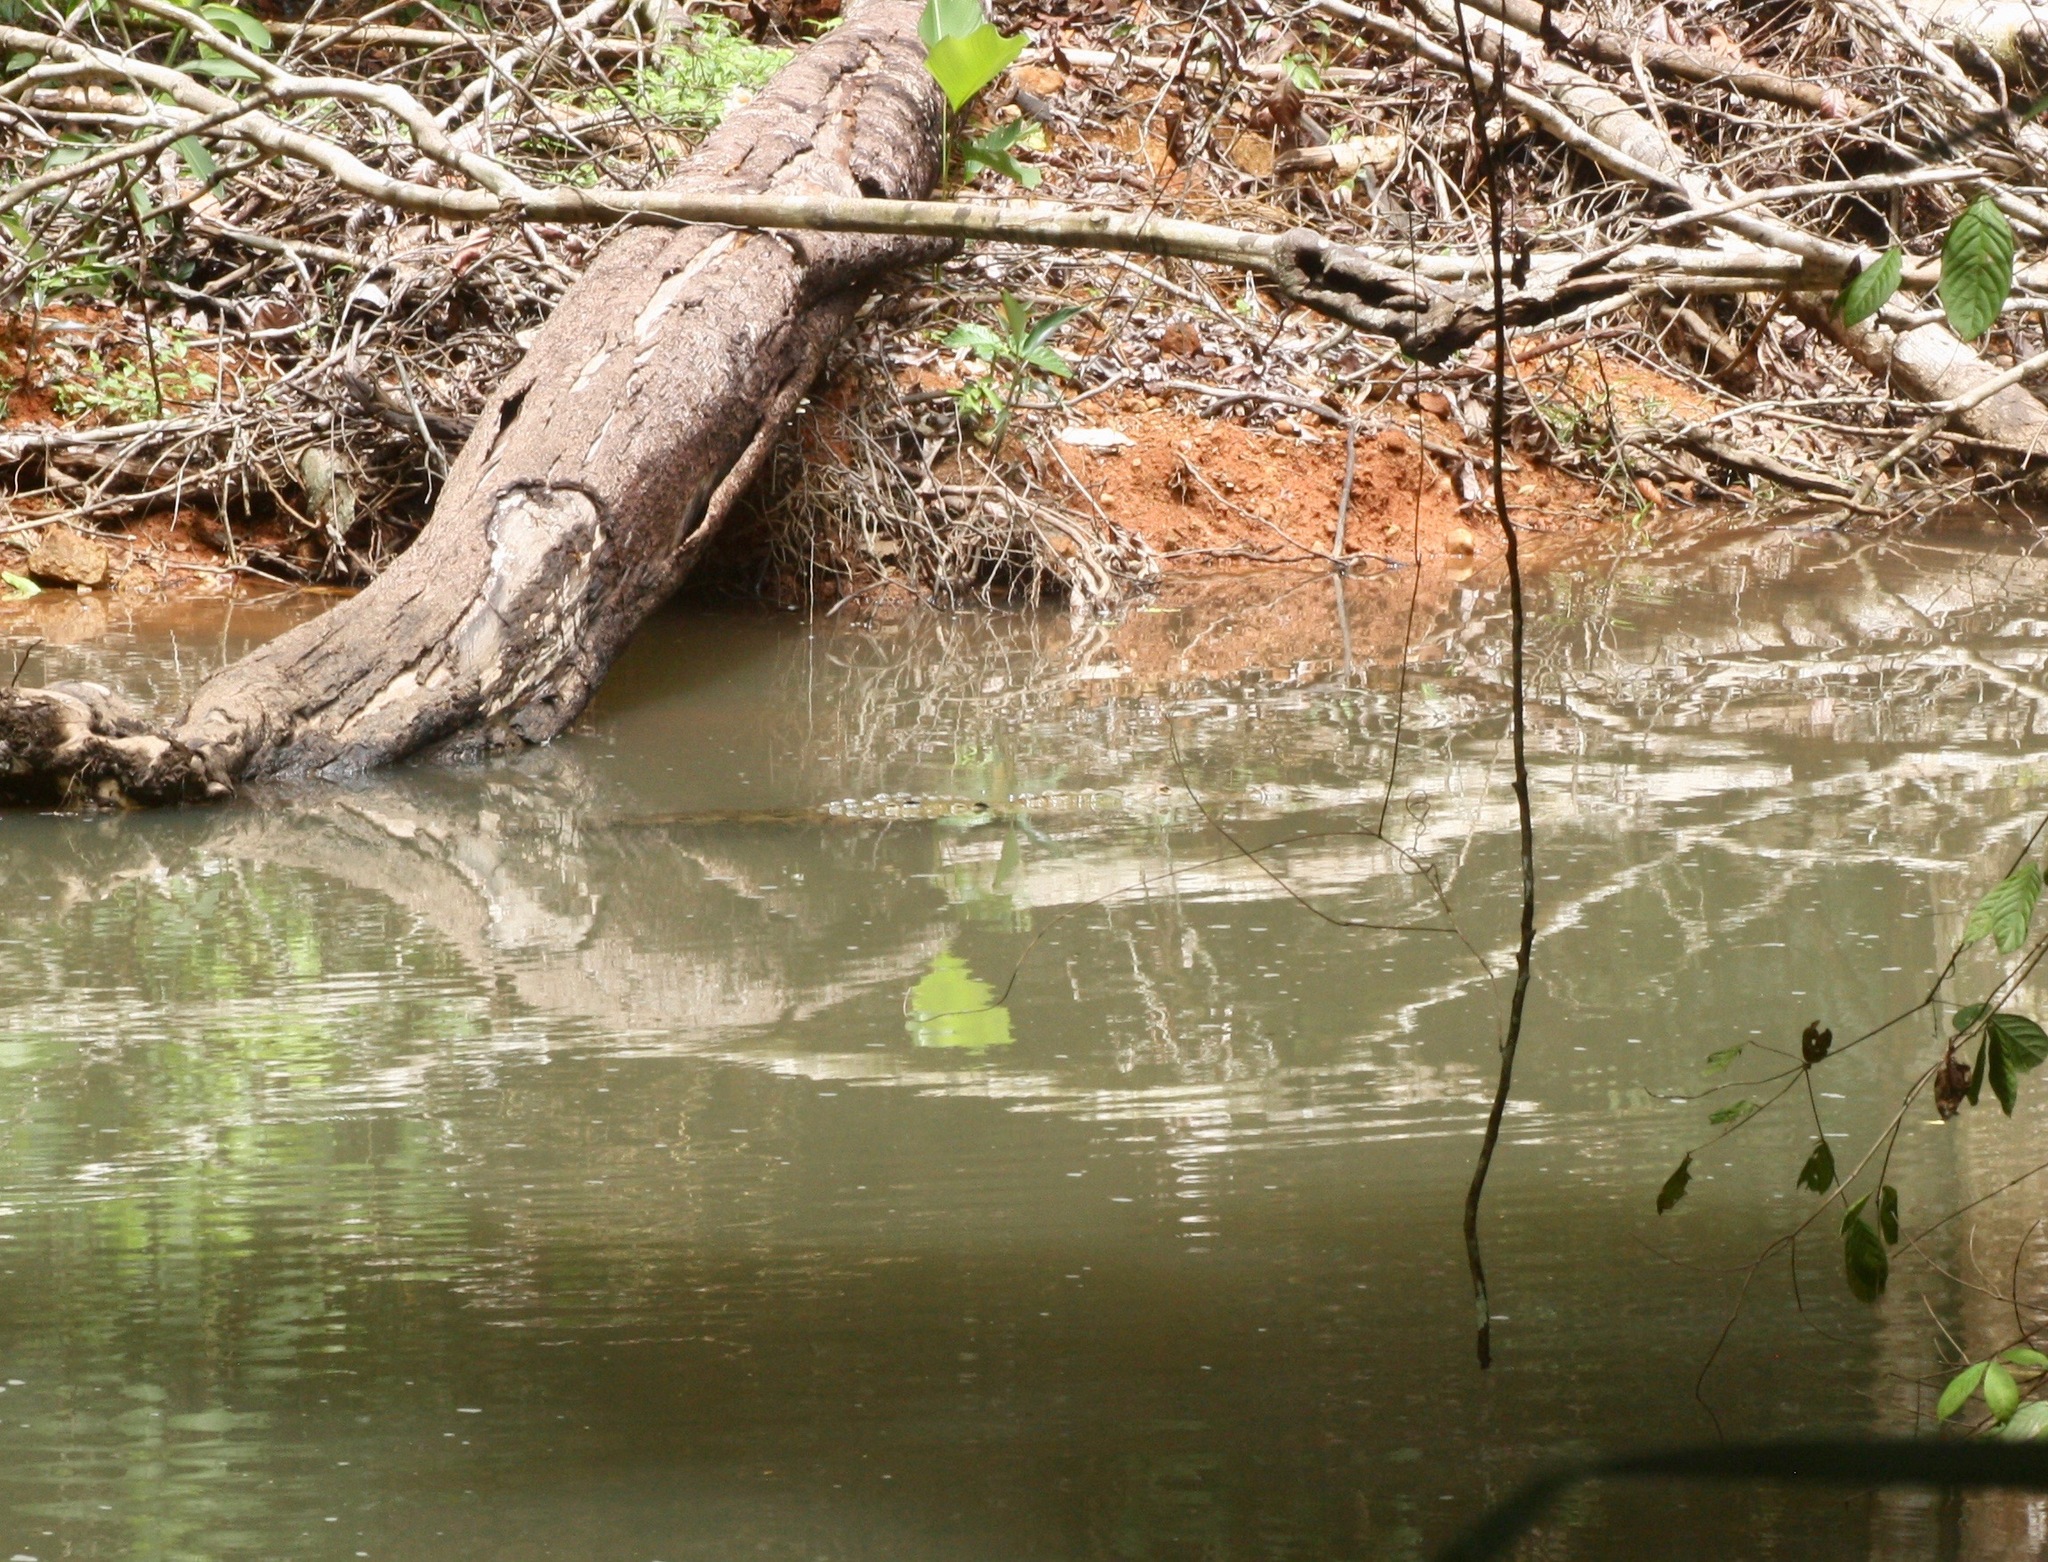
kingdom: Animalia
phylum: Chordata
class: Crocodylia
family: Crocodylidae
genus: Crocodylus
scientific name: Crocodylus acutus
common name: American crocodile
